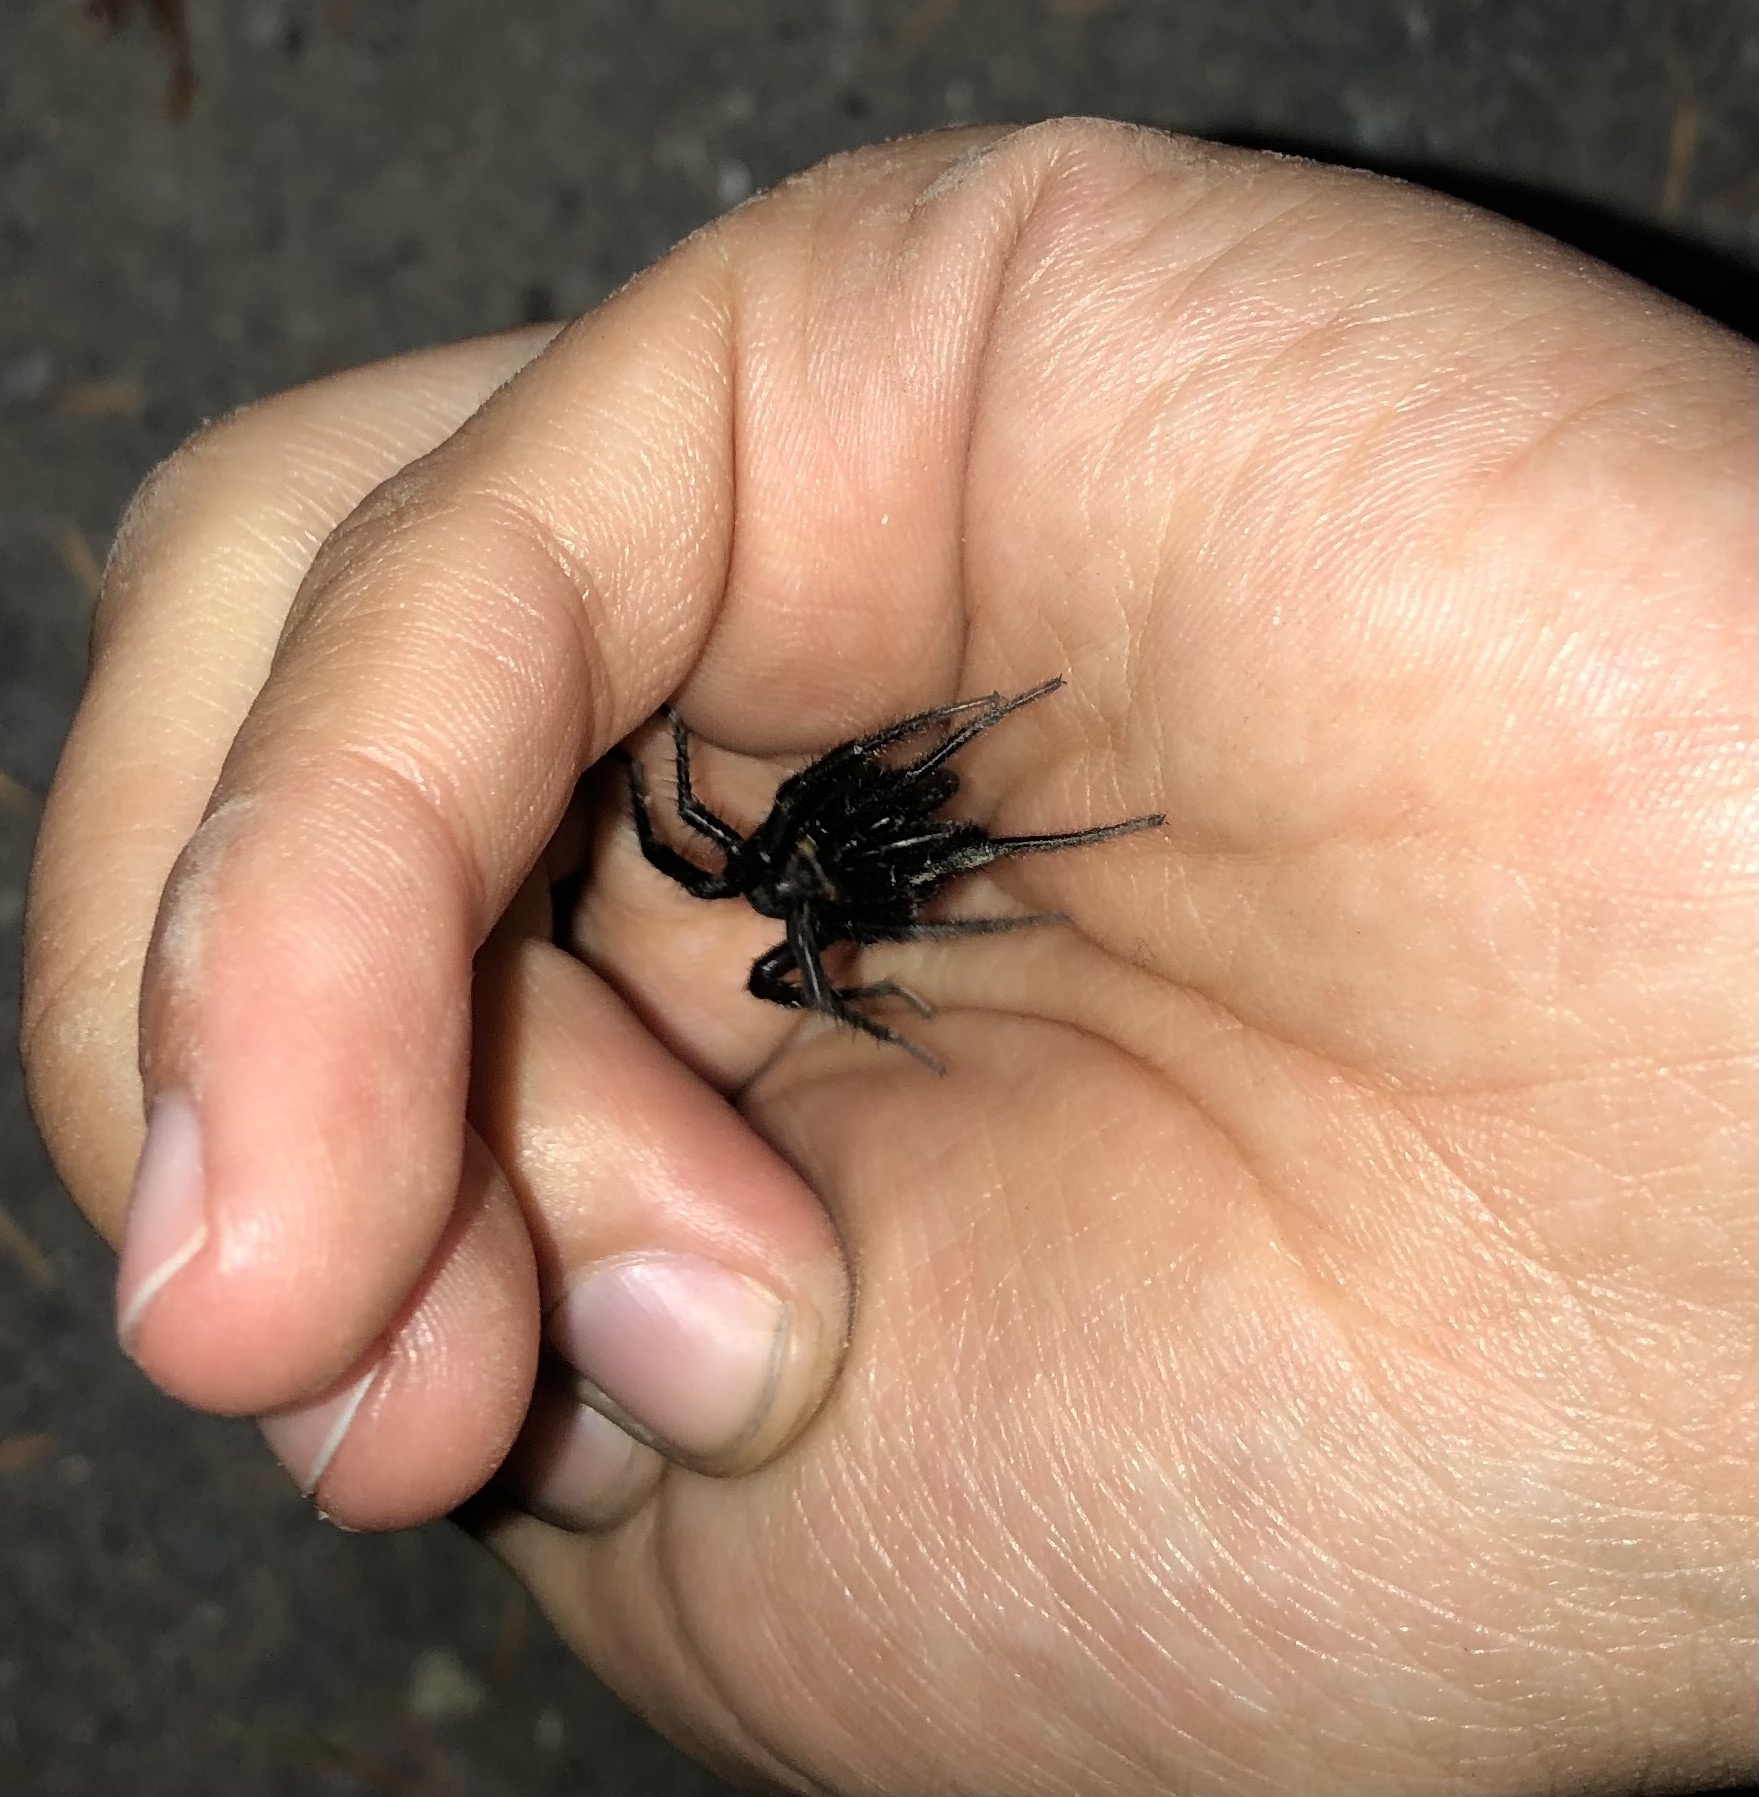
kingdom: Animalia
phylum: Arthropoda
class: Arachnida
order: Araneae
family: Antrodiaetidae
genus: Antrodiaetus
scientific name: Antrodiaetus pacificus
